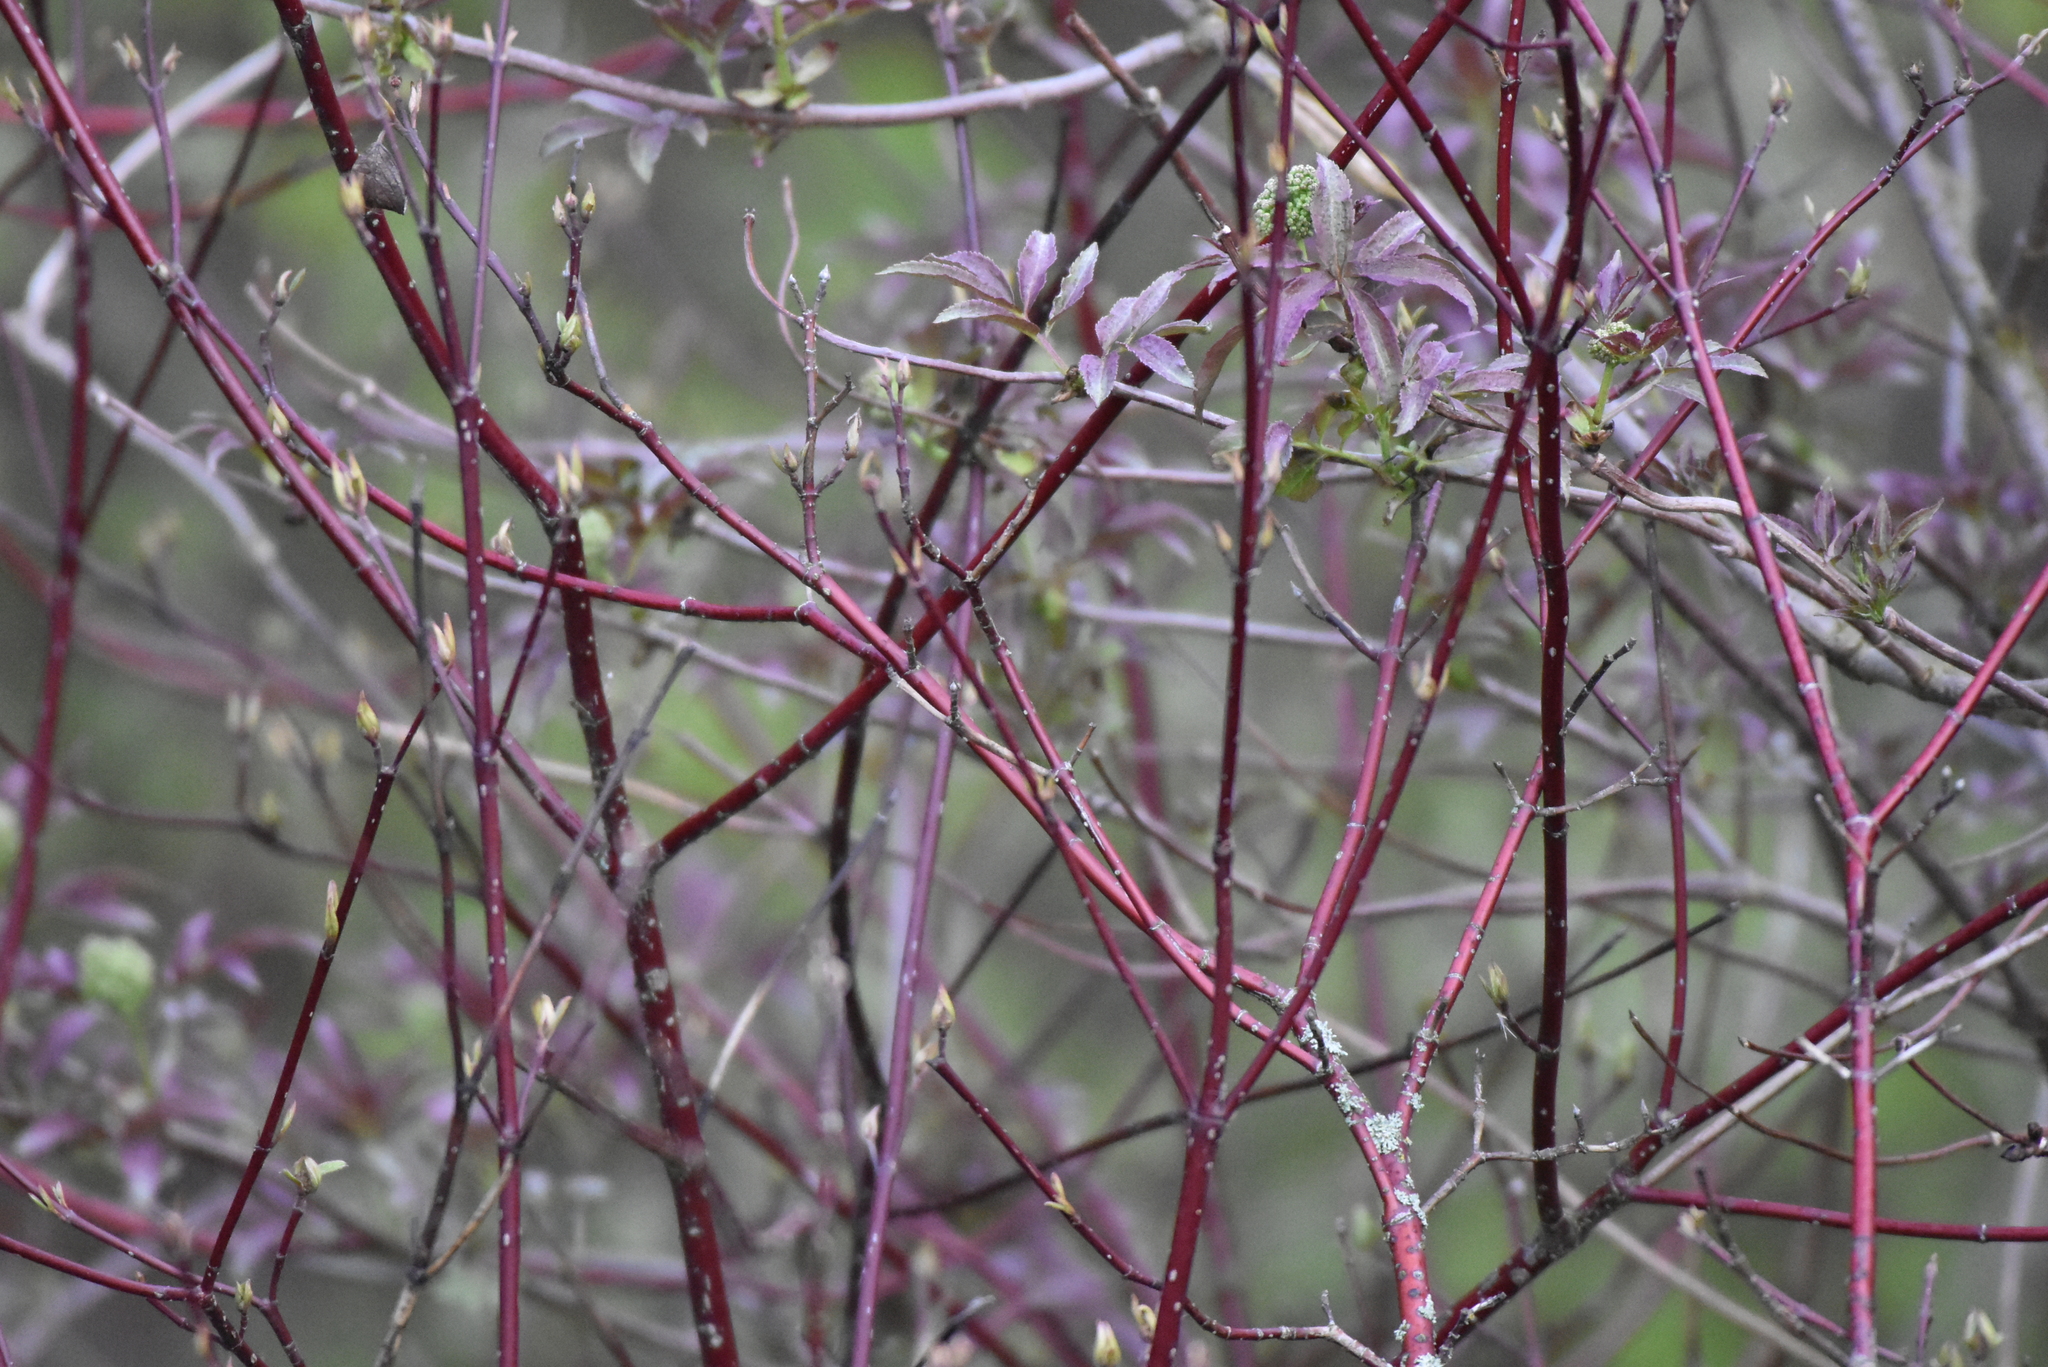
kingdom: Plantae
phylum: Tracheophyta
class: Magnoliopsida
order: Cornales
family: Cornaceae
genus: Cornus
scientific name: Cornus sericea
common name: Red-osier dogwood
